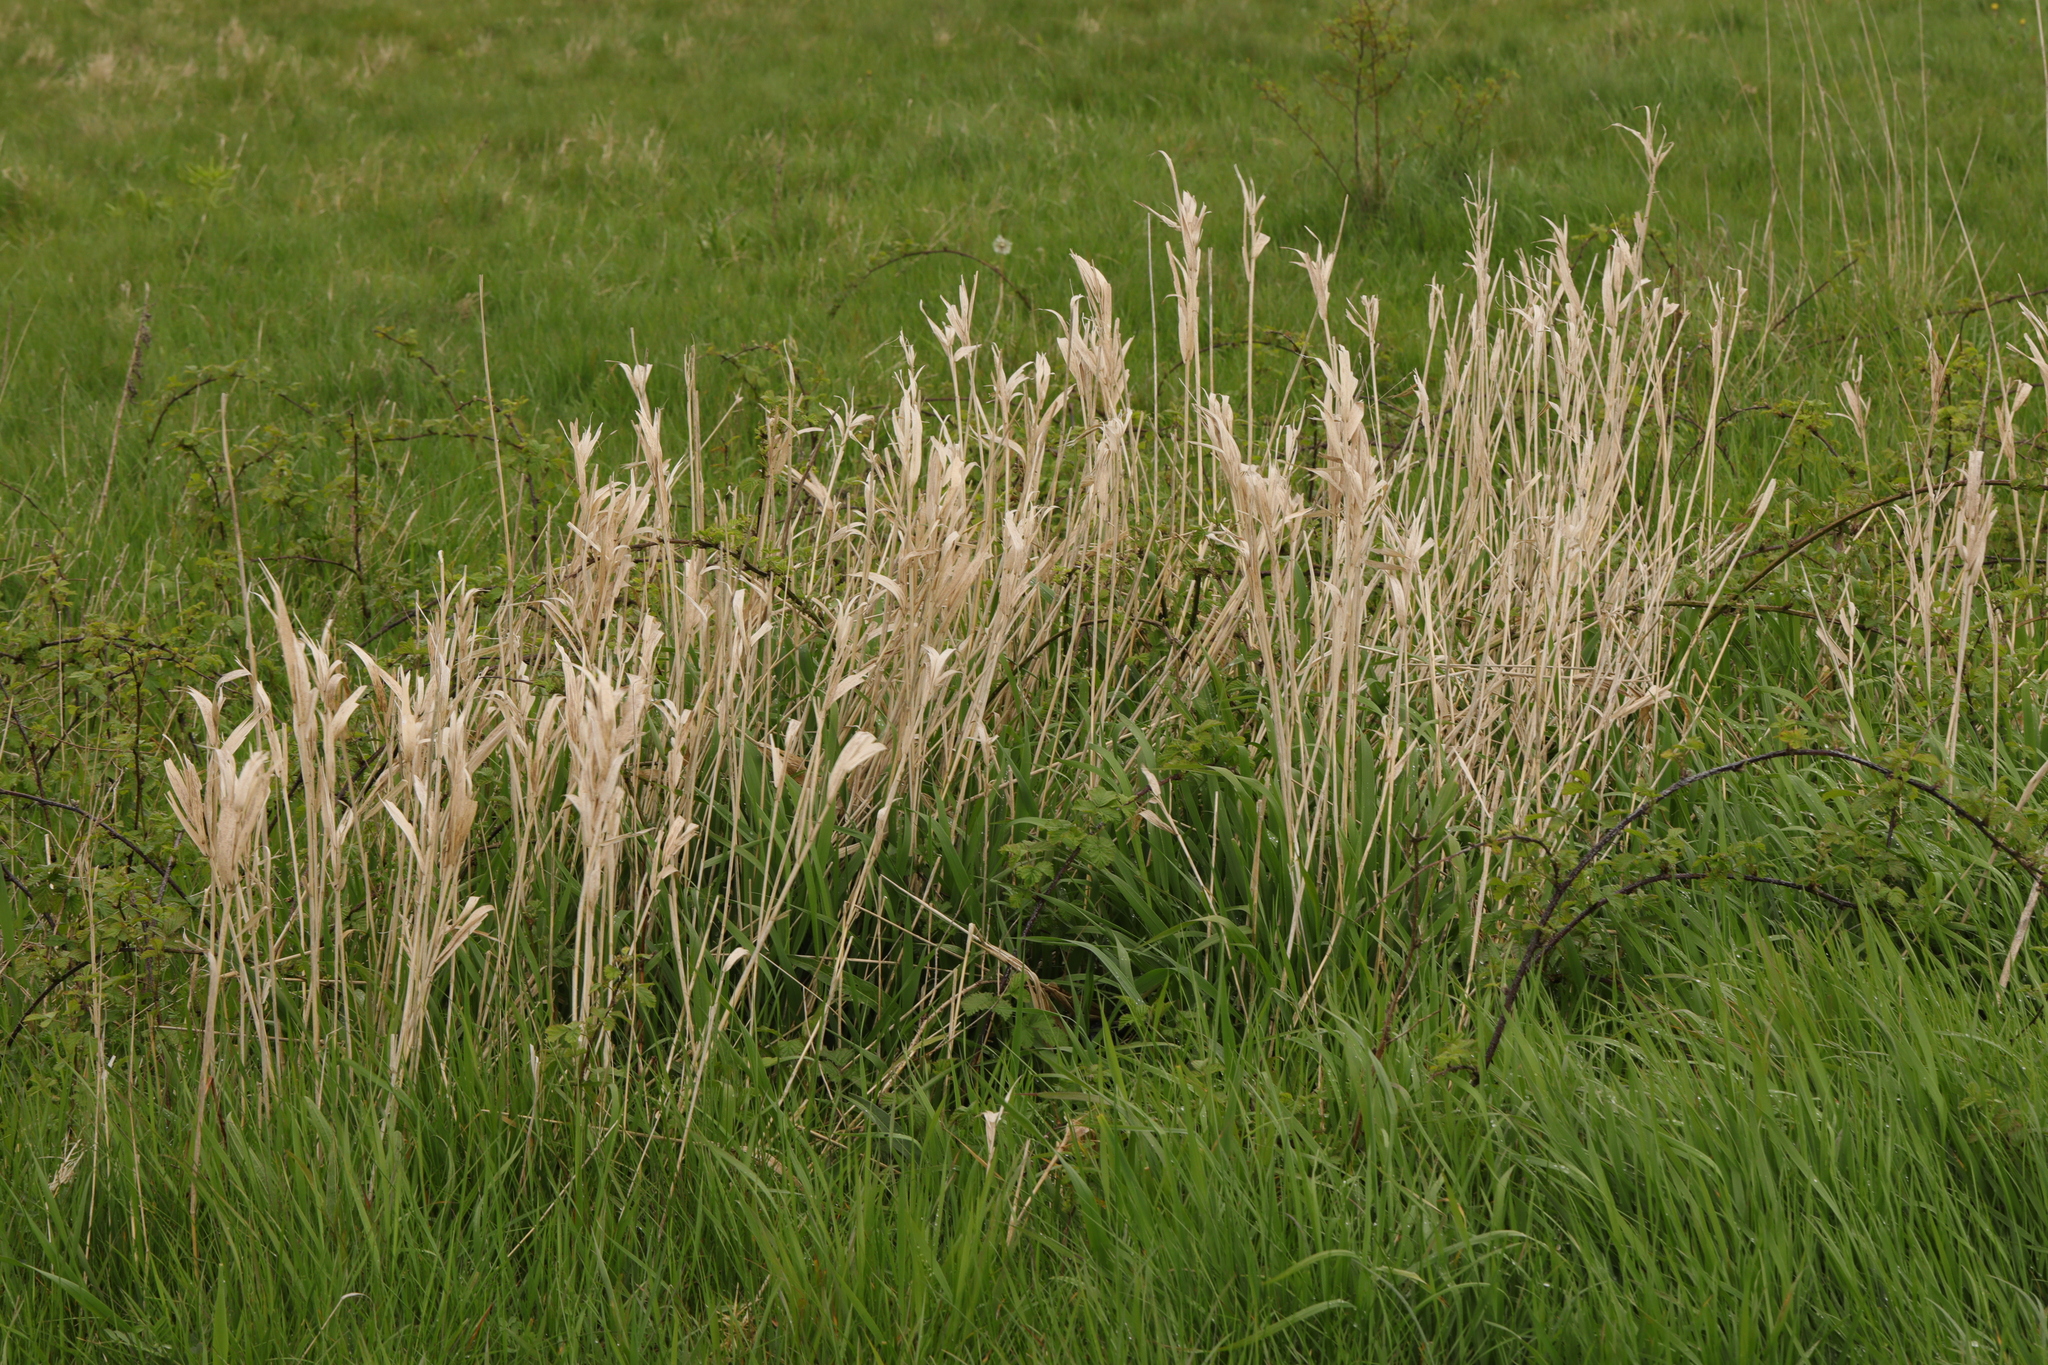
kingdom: Plantae
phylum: Tracheophyta
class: Liliopsida
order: Poales
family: Poaceae
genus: Phalaris
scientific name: Phalaris arundinacea
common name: Reed canary-grass
